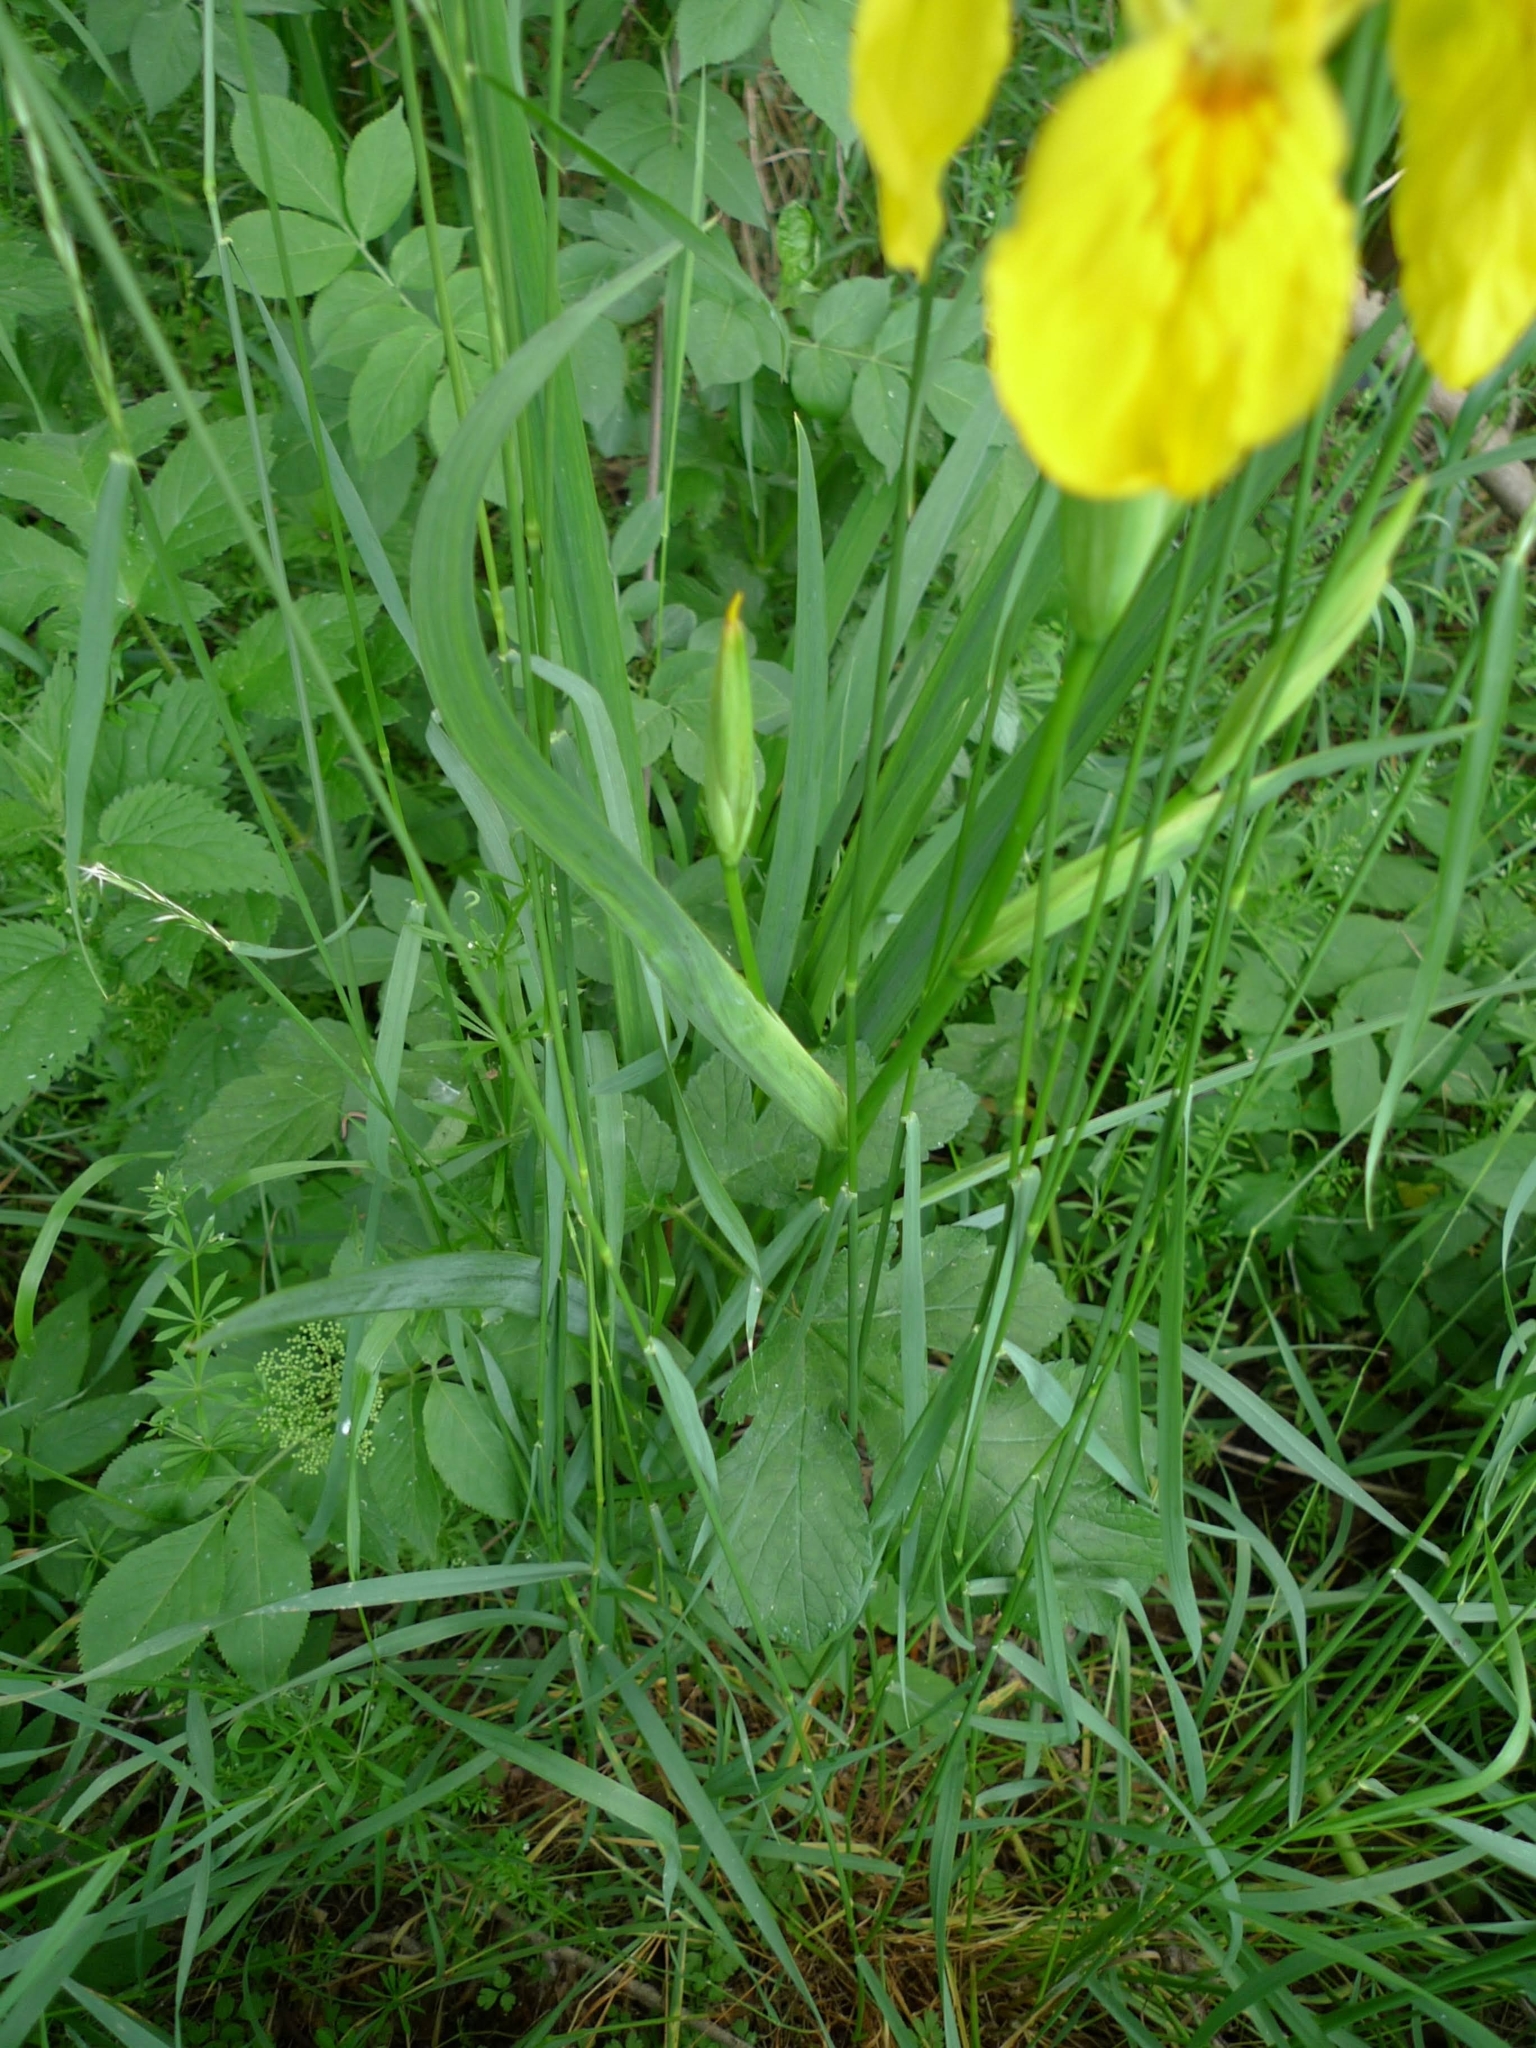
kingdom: Plantae
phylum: Tracheophyta
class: Liliopsida
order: Asparagales
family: Iridaceae
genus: Iris
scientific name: Iris pseudacorus
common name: Yellow flag
